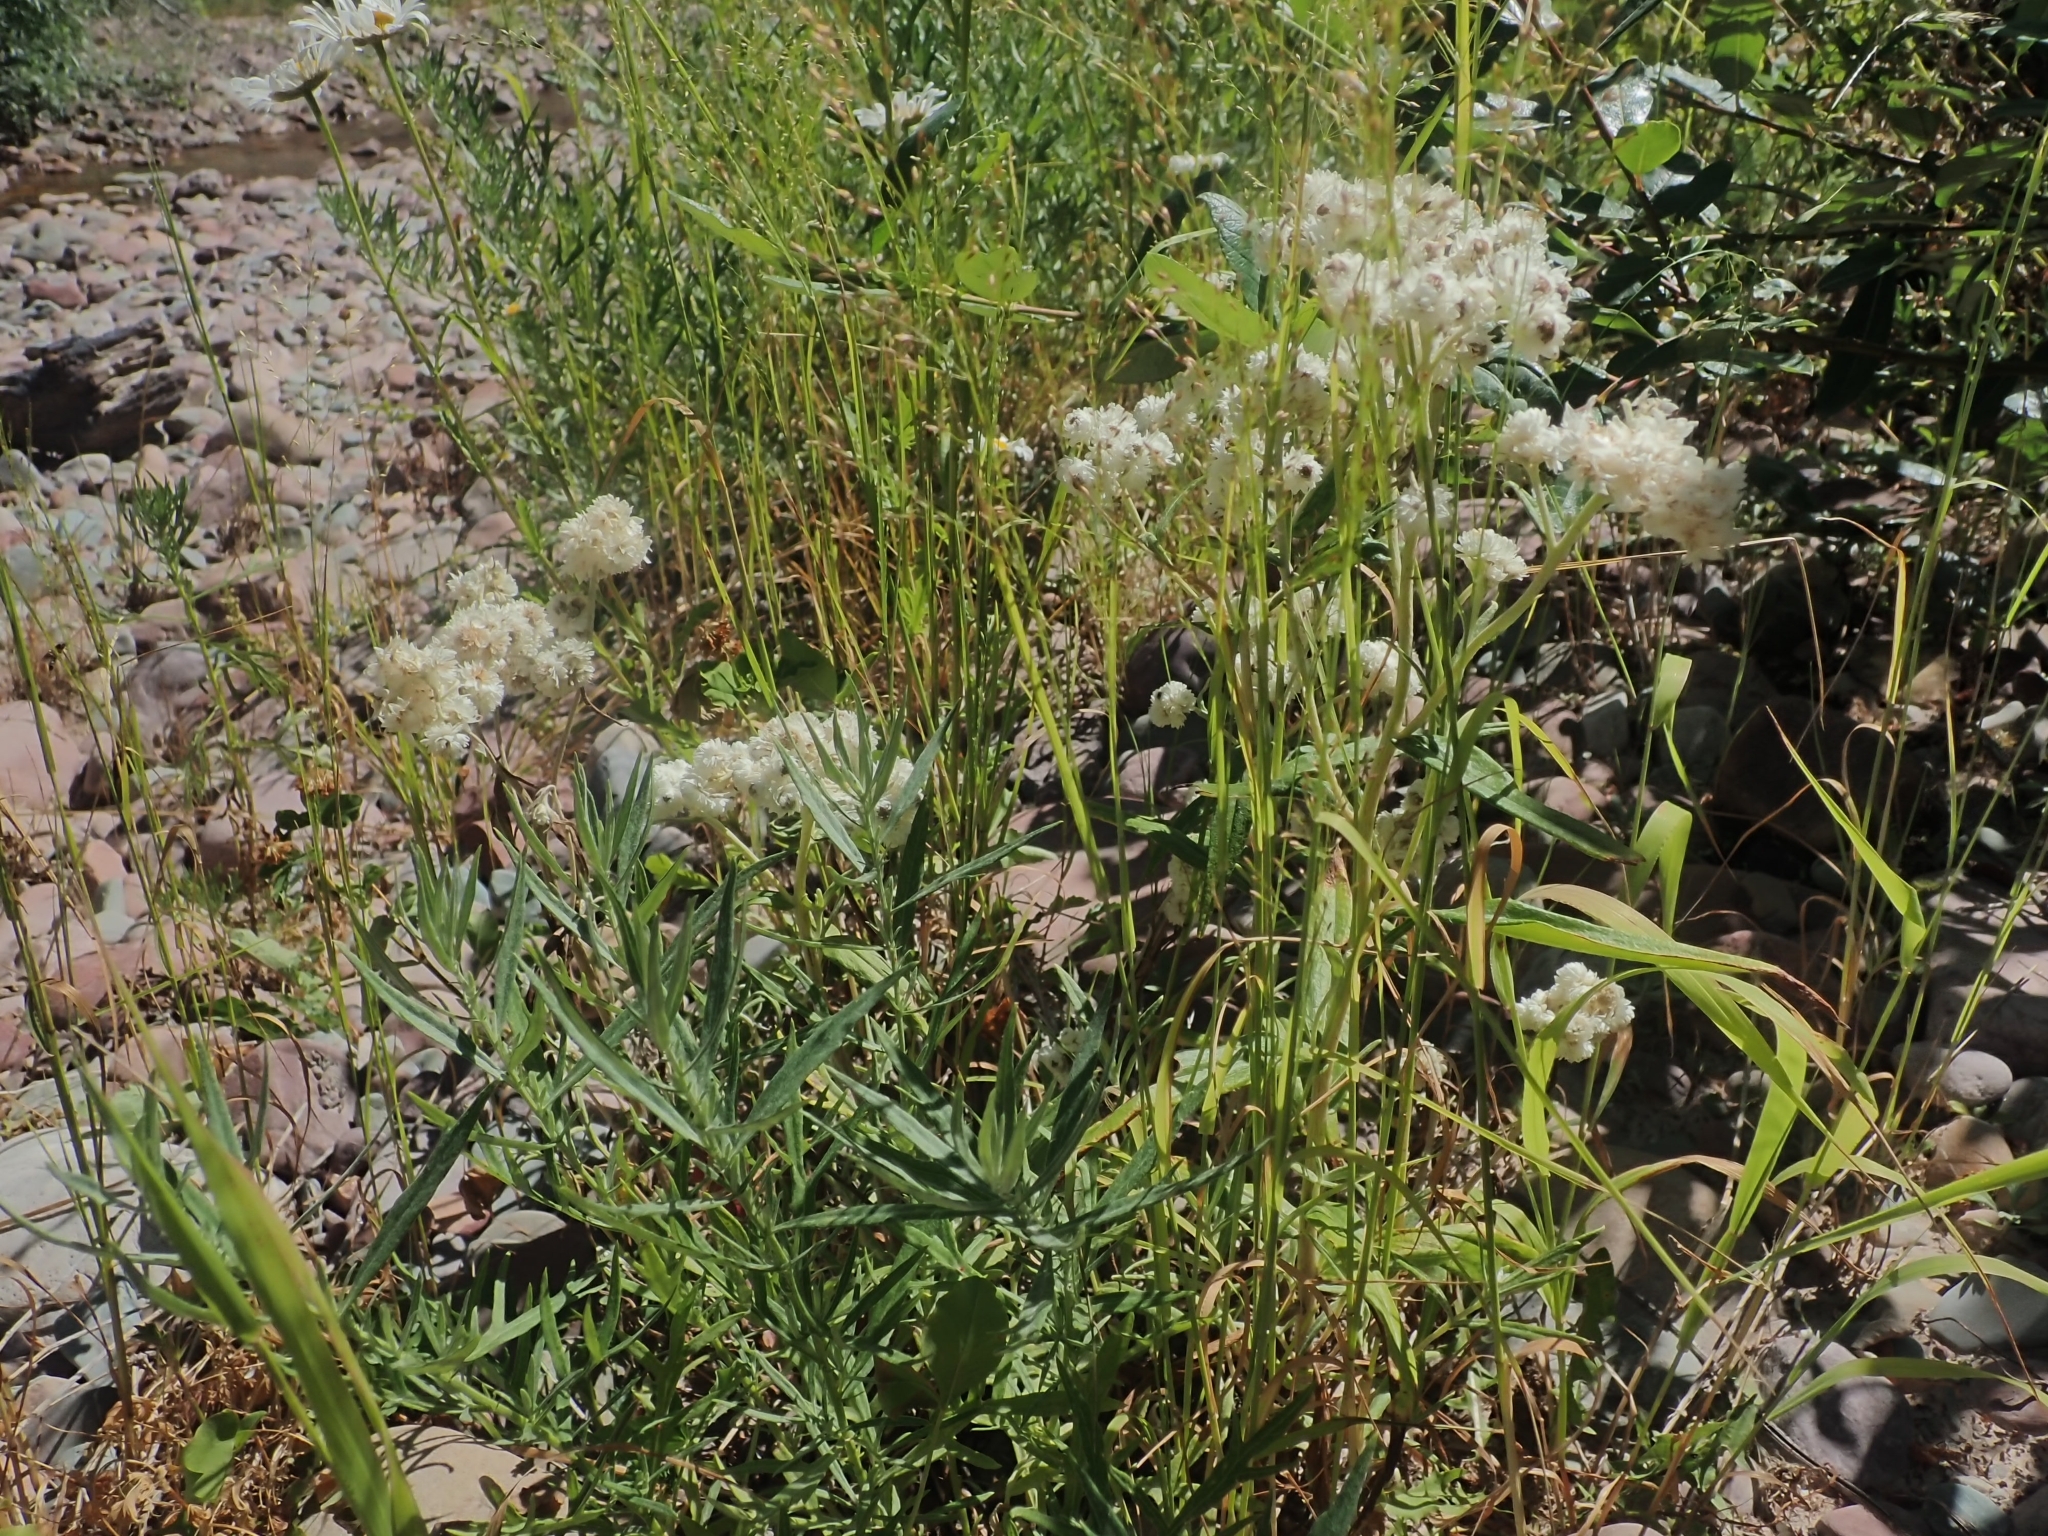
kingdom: Plantae
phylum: Tracheophyta
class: Magnoliopsida
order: Asterales
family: Asteraceae
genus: Anaphalis
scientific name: Anaphalis margaritacea
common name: Pearly everlasting
